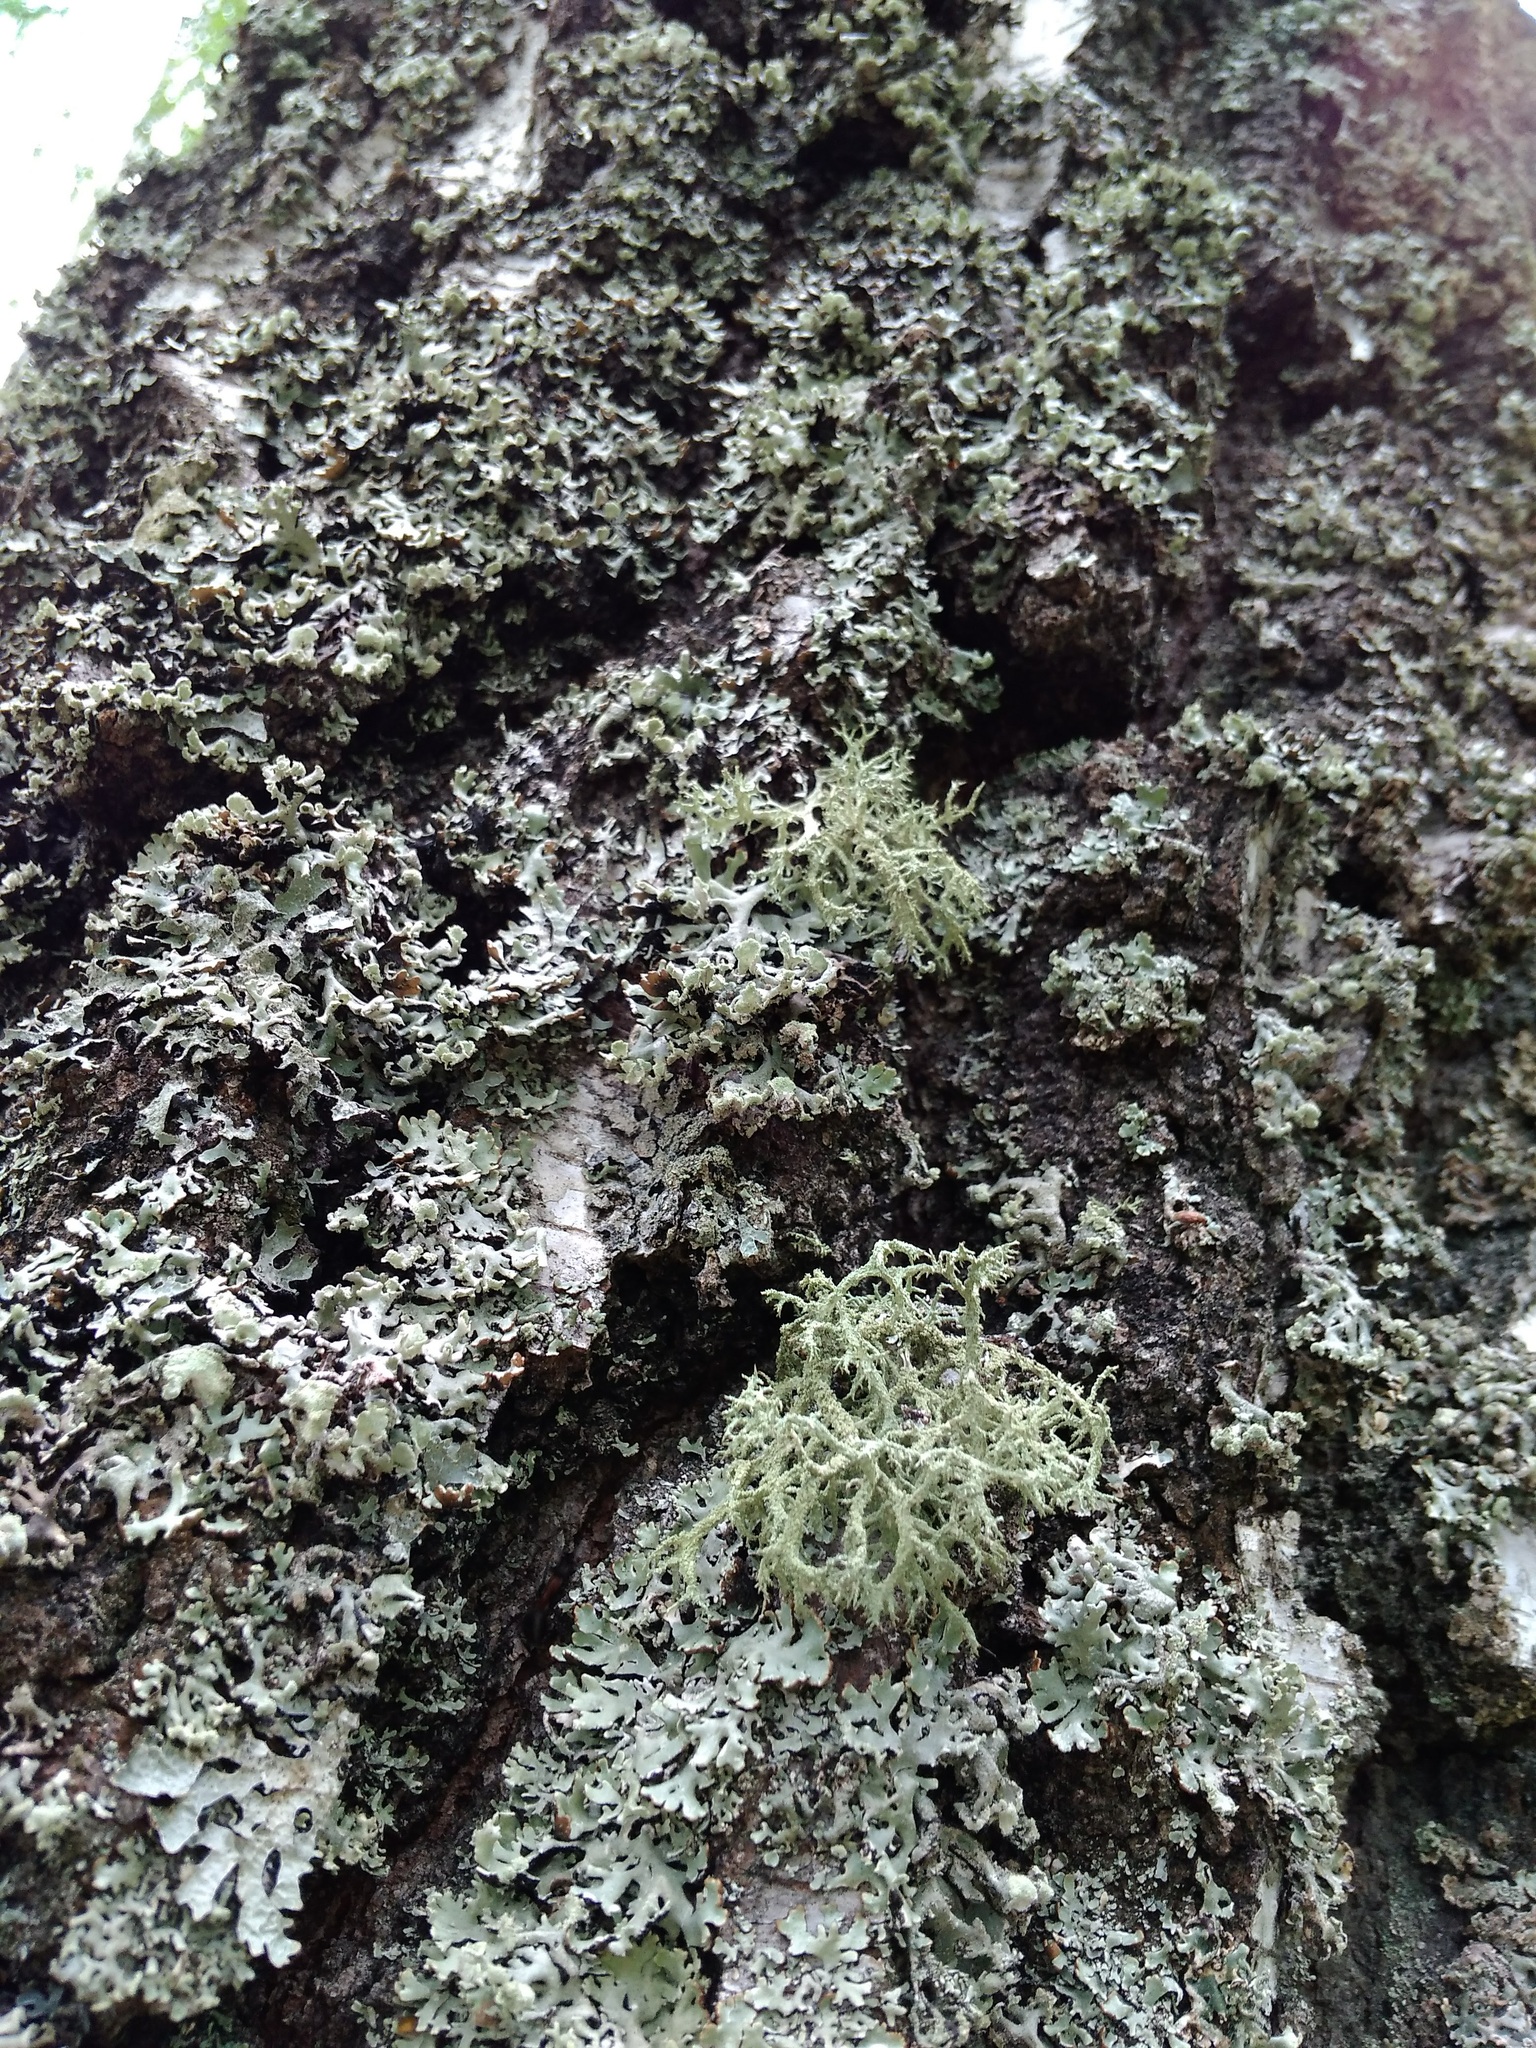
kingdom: Fungi
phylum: Ascomycota
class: Lecanoromycetes
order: Lecanorales
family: Parmeliaceae
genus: Evernia
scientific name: Evernia mesomorpha
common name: Boreal oak moss lichen
